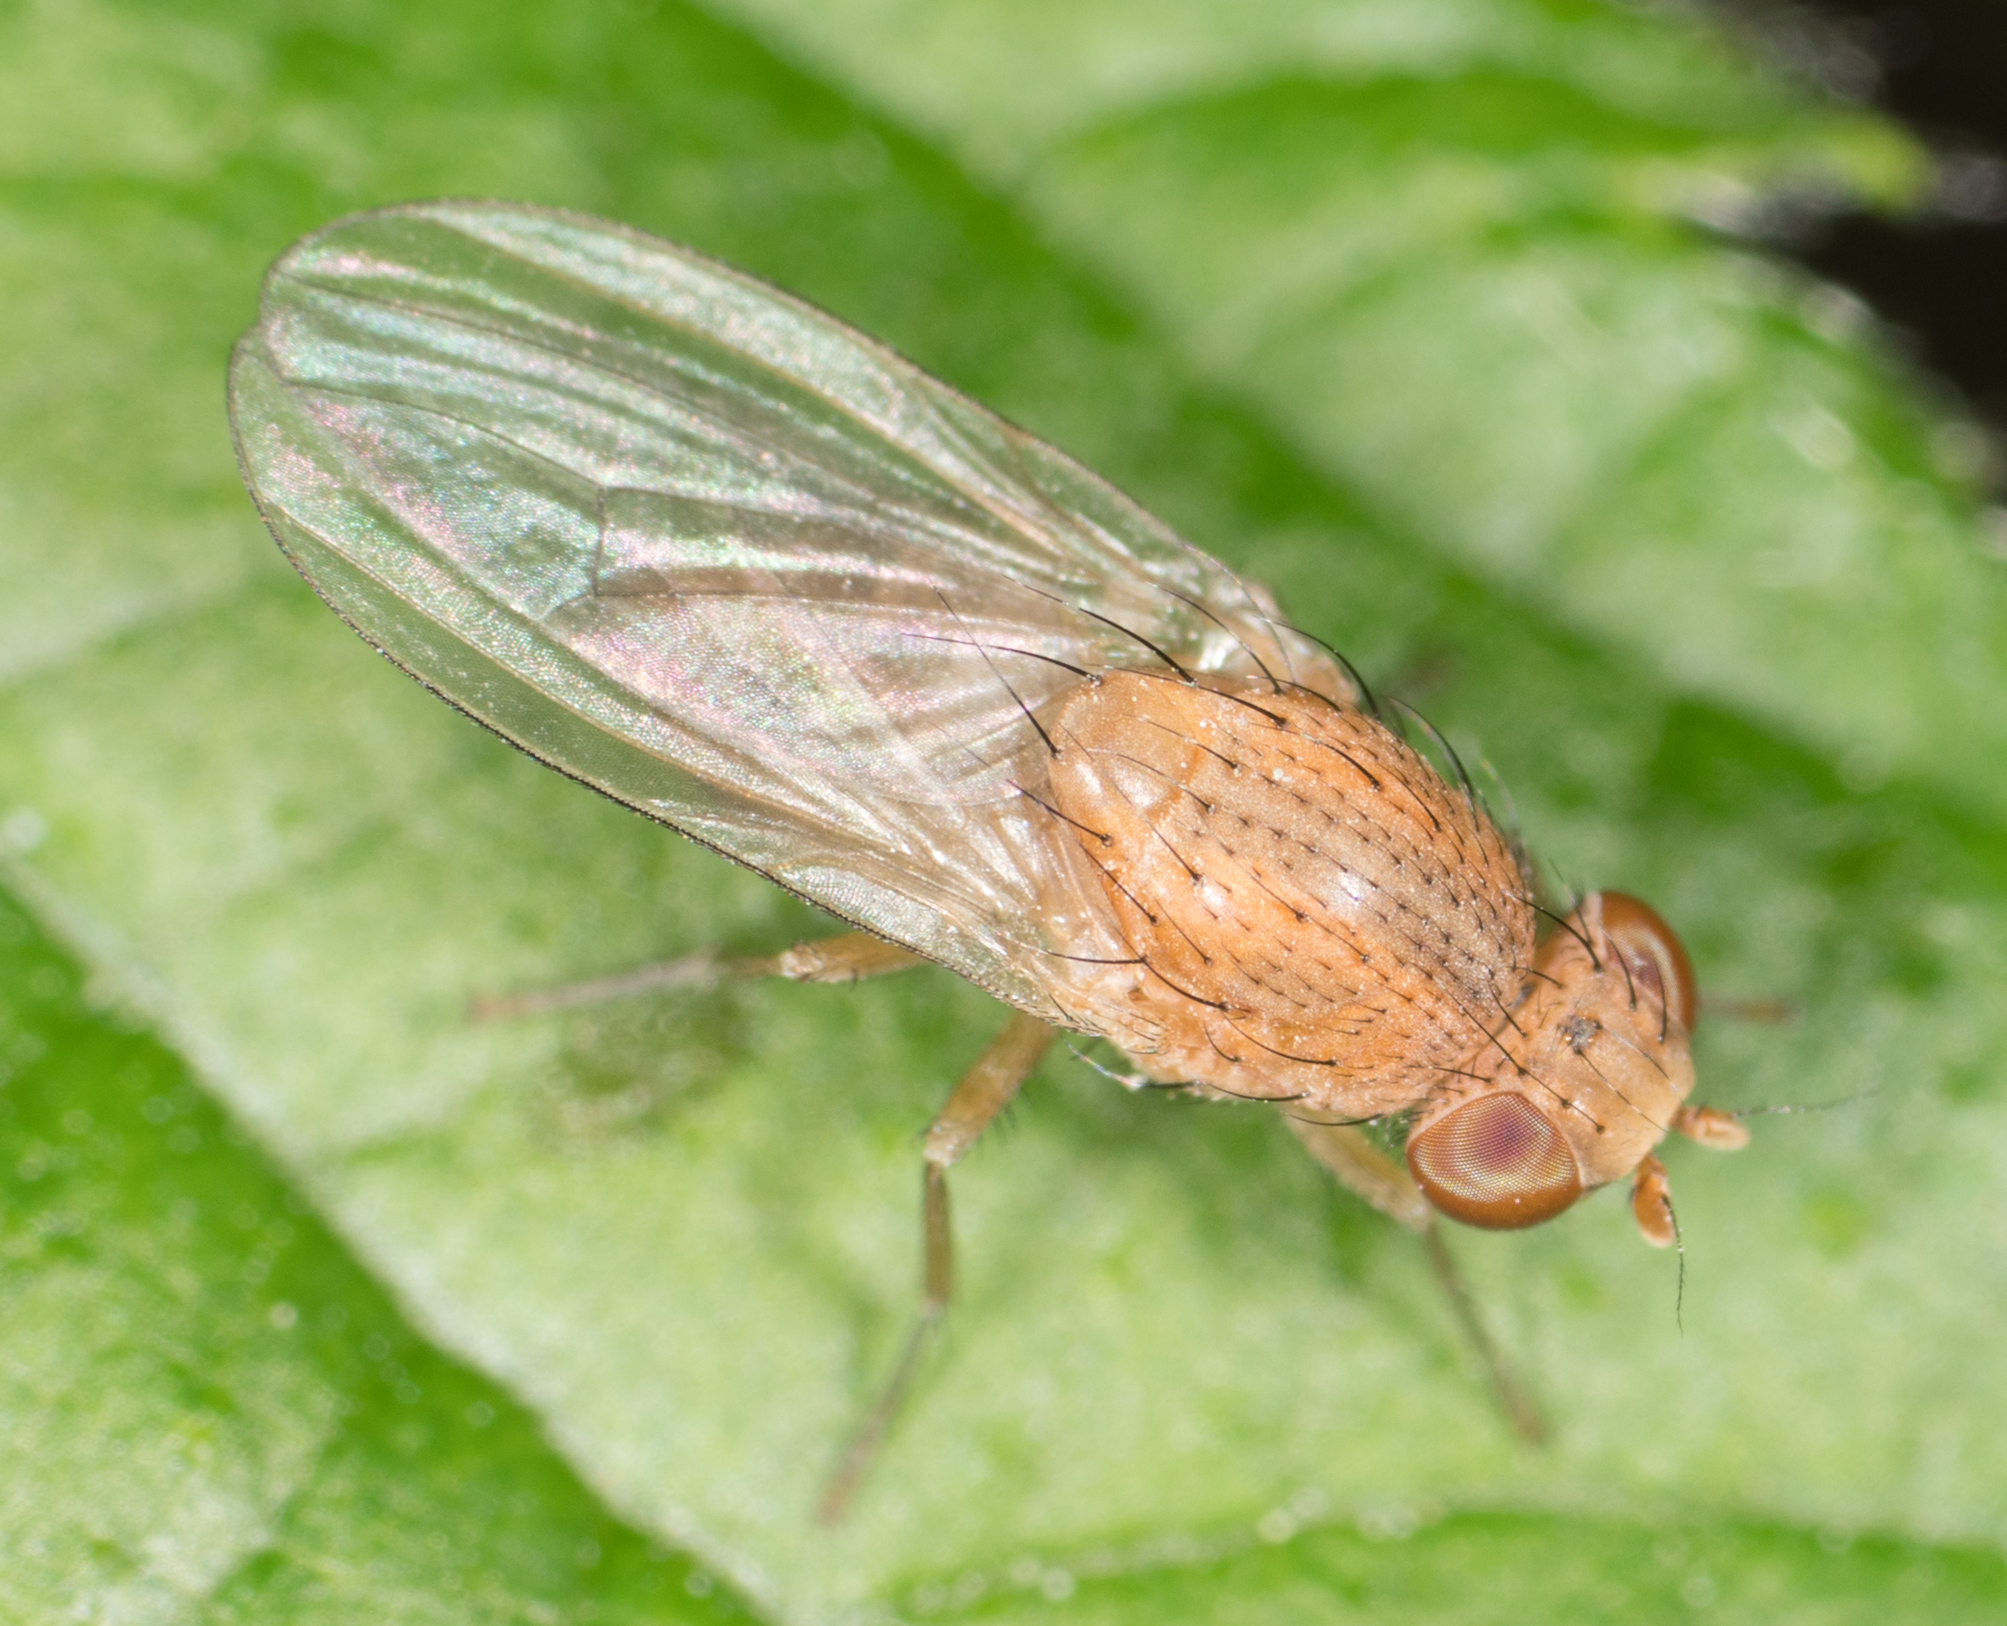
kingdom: Animalia
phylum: Arthropoda
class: Insecta
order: Diptera
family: Lauxaniidae
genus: Minettia
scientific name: Minettia flaveola
